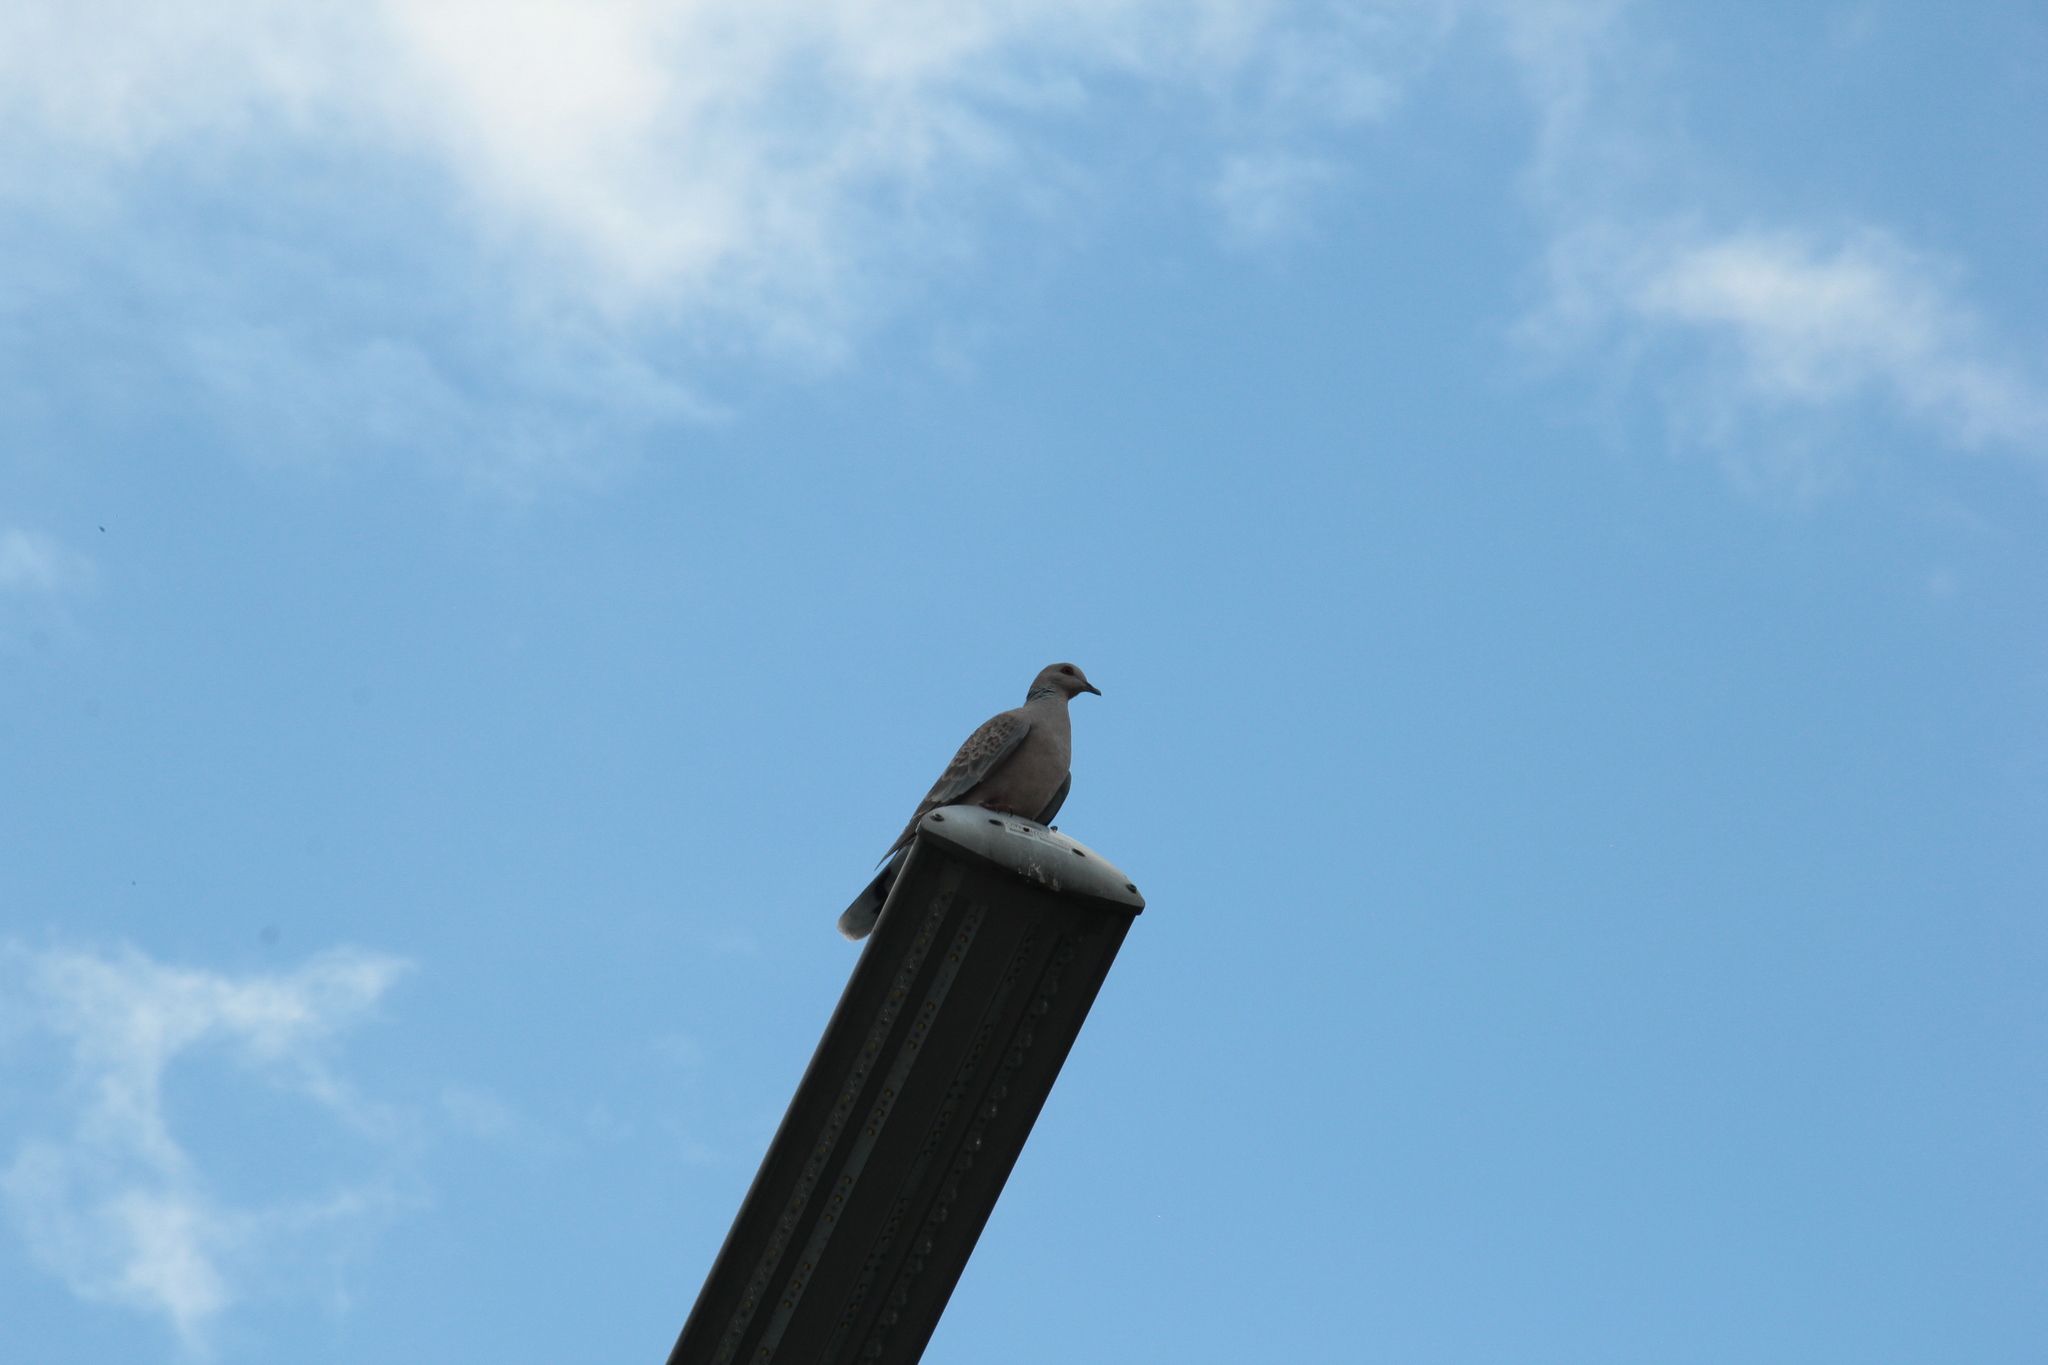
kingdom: Animalia
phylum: Chordata
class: Aves
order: Columbiformes
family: Columbidae
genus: Streptopelia
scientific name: Streptopelia orientalis
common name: Oriental turtle dove
